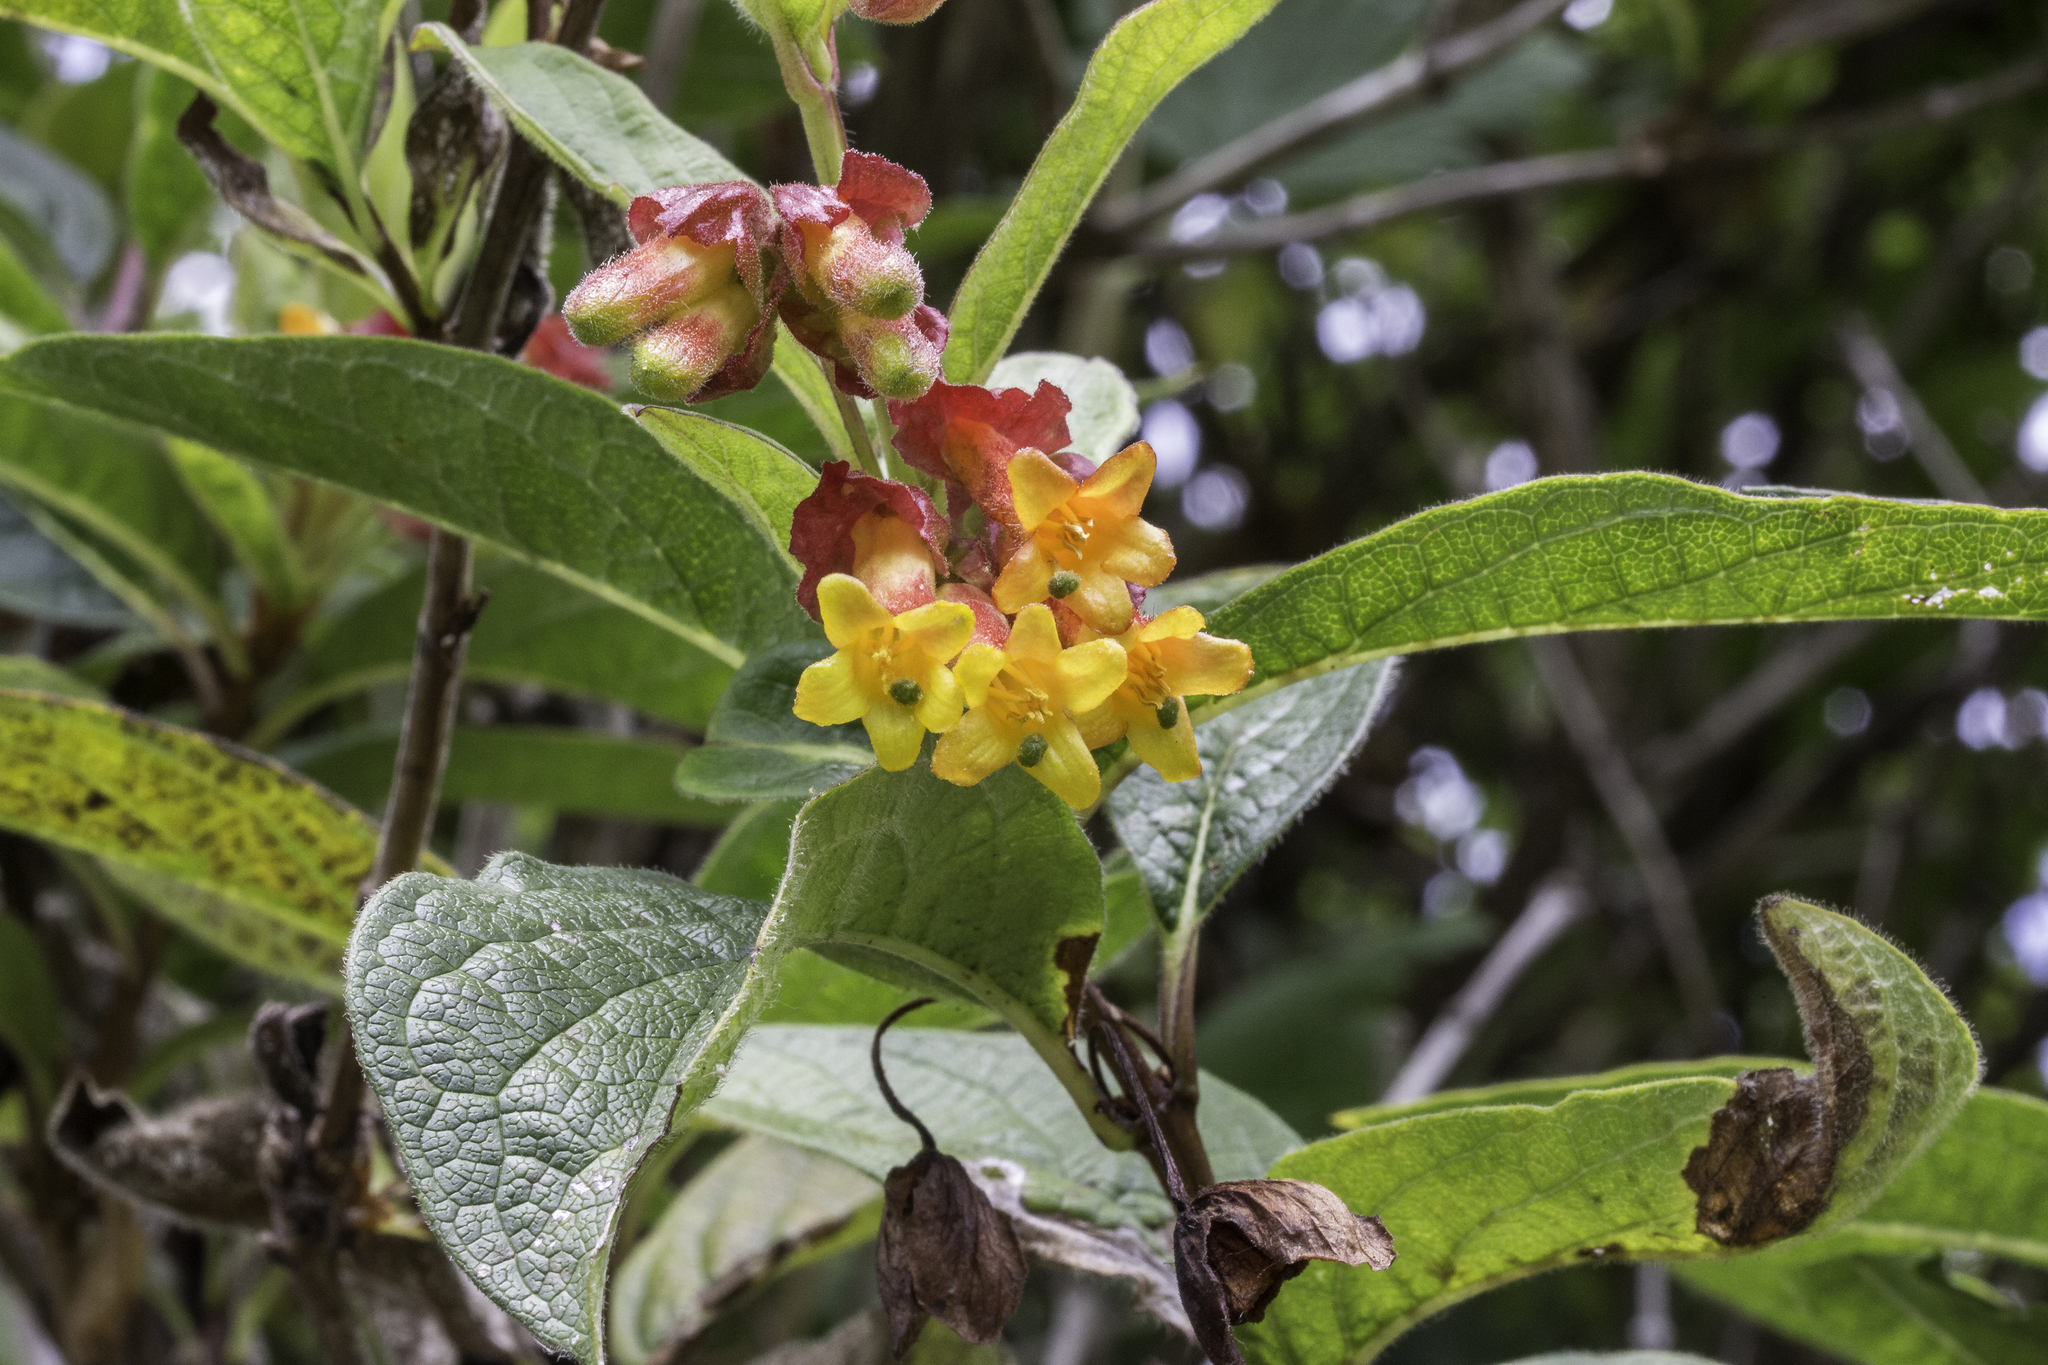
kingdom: Plantae
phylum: Tracheophyta
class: Magnoliopsida
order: Dipsacales
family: Caprifoliaceae
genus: Lonicera
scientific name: Lonicera involucrata
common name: Californian honeysuckle
